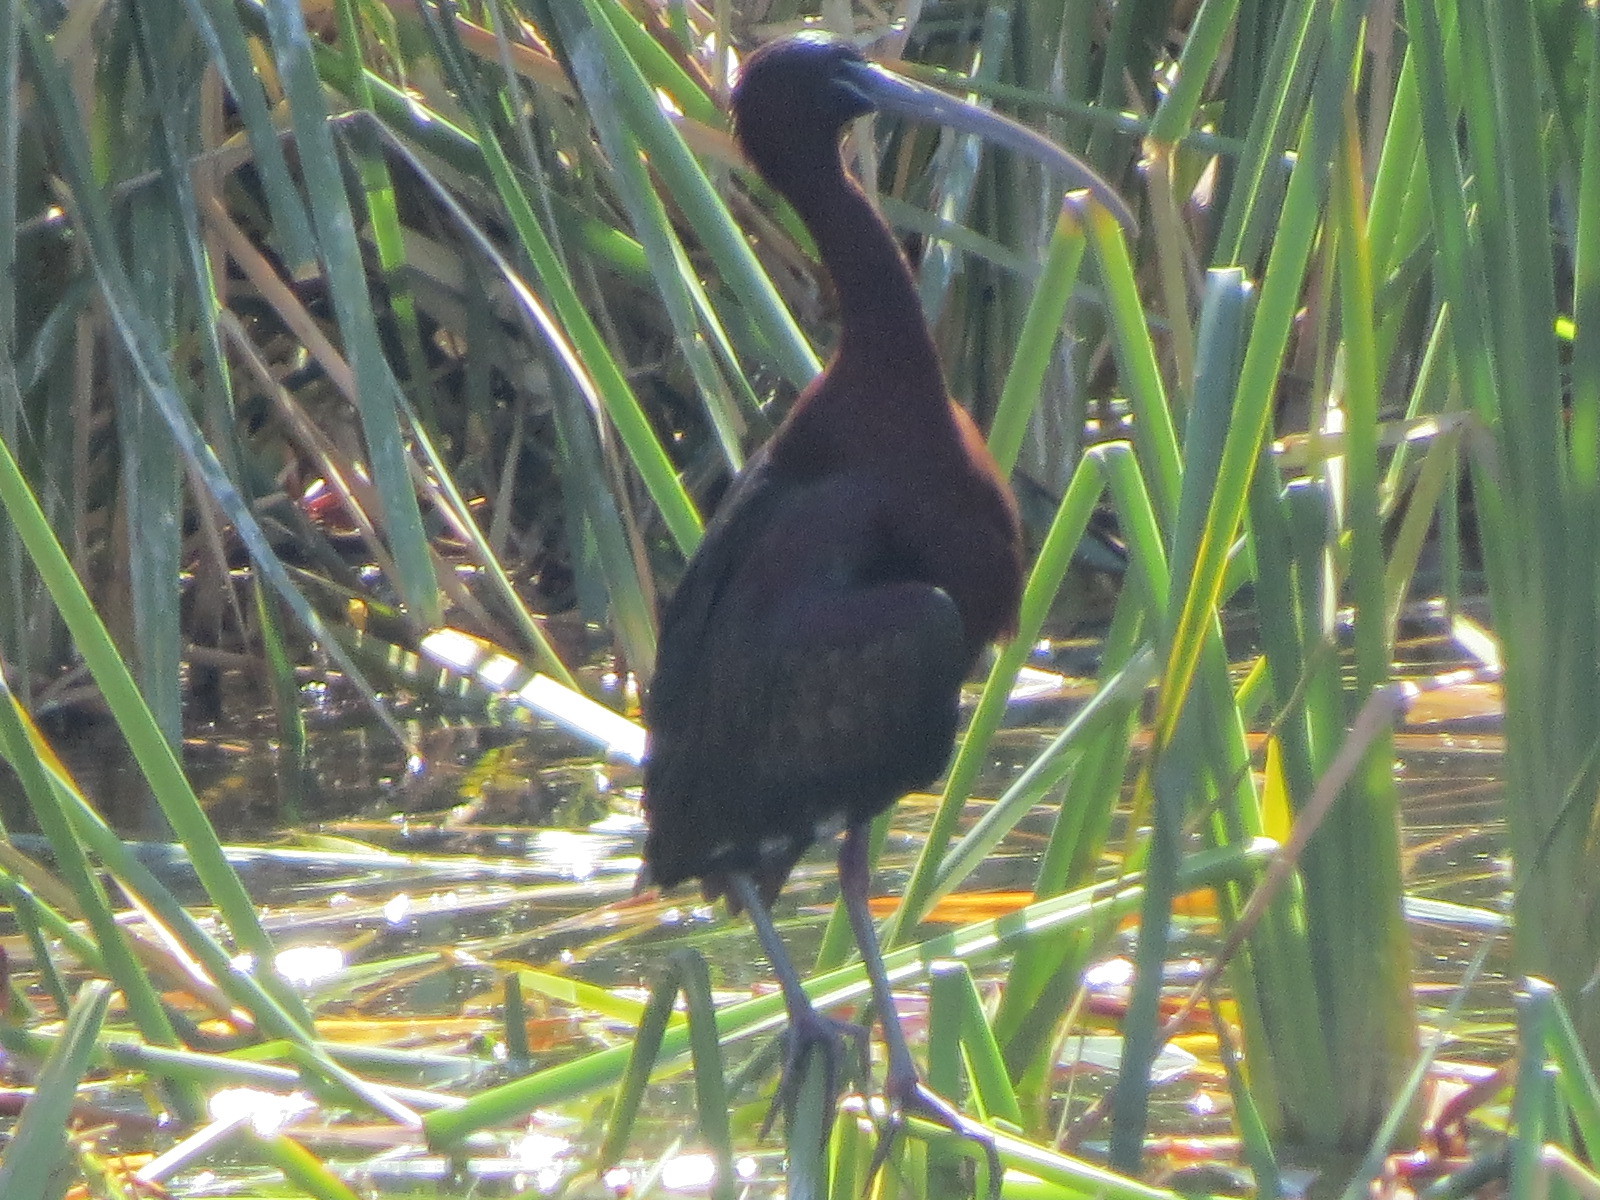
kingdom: Animalia
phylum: Chordata
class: Aves
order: Pelecaniformes
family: Threskiornithidae
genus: Plegadis
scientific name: Plegadis falcinellus
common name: Glossy ibis
